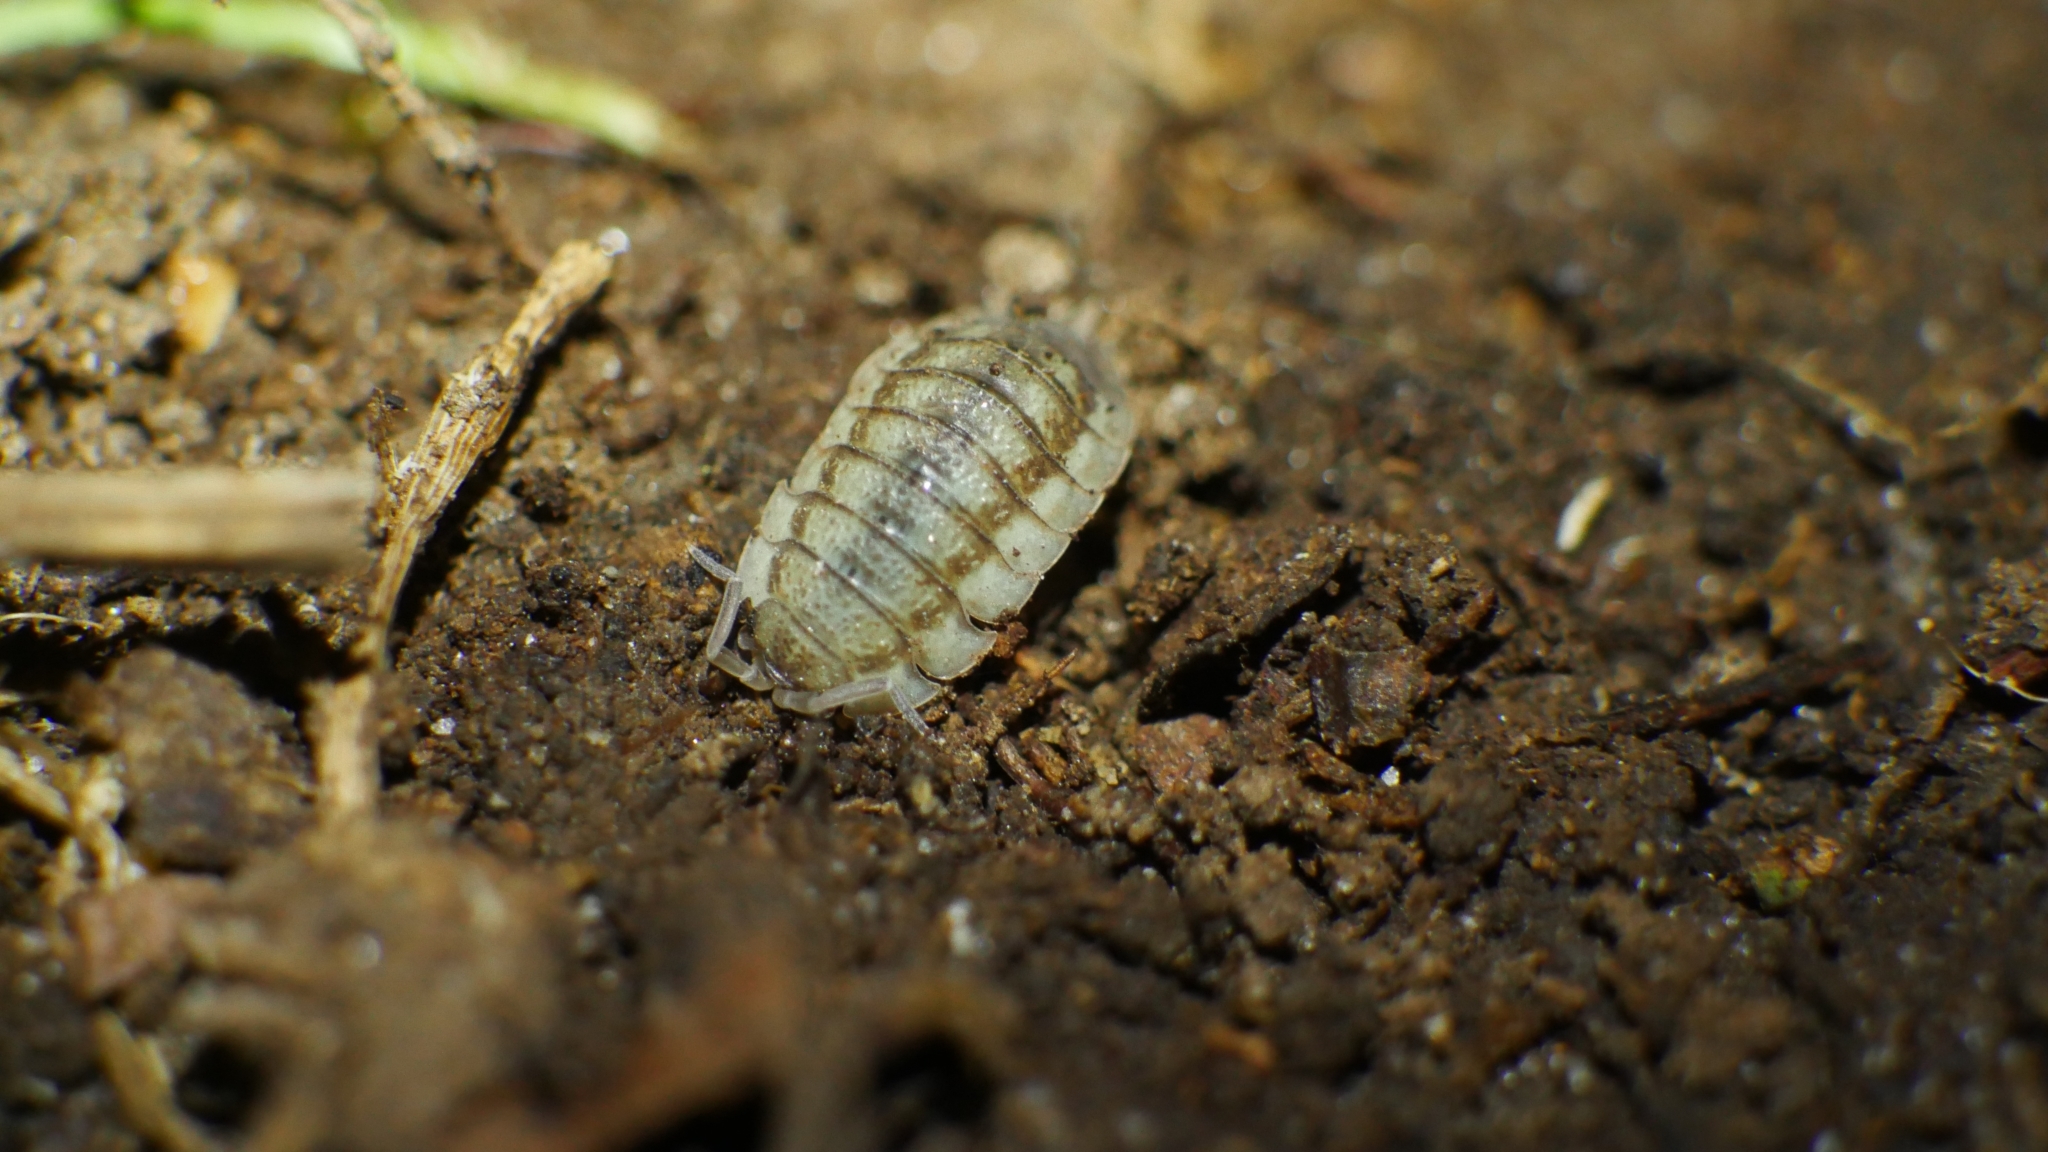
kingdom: Animalia
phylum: Arthropoda
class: Malacostraca
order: Isopoda
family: Porcellionidae
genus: Porcellio
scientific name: Porcellio scaber
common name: Common rough woodlouse
